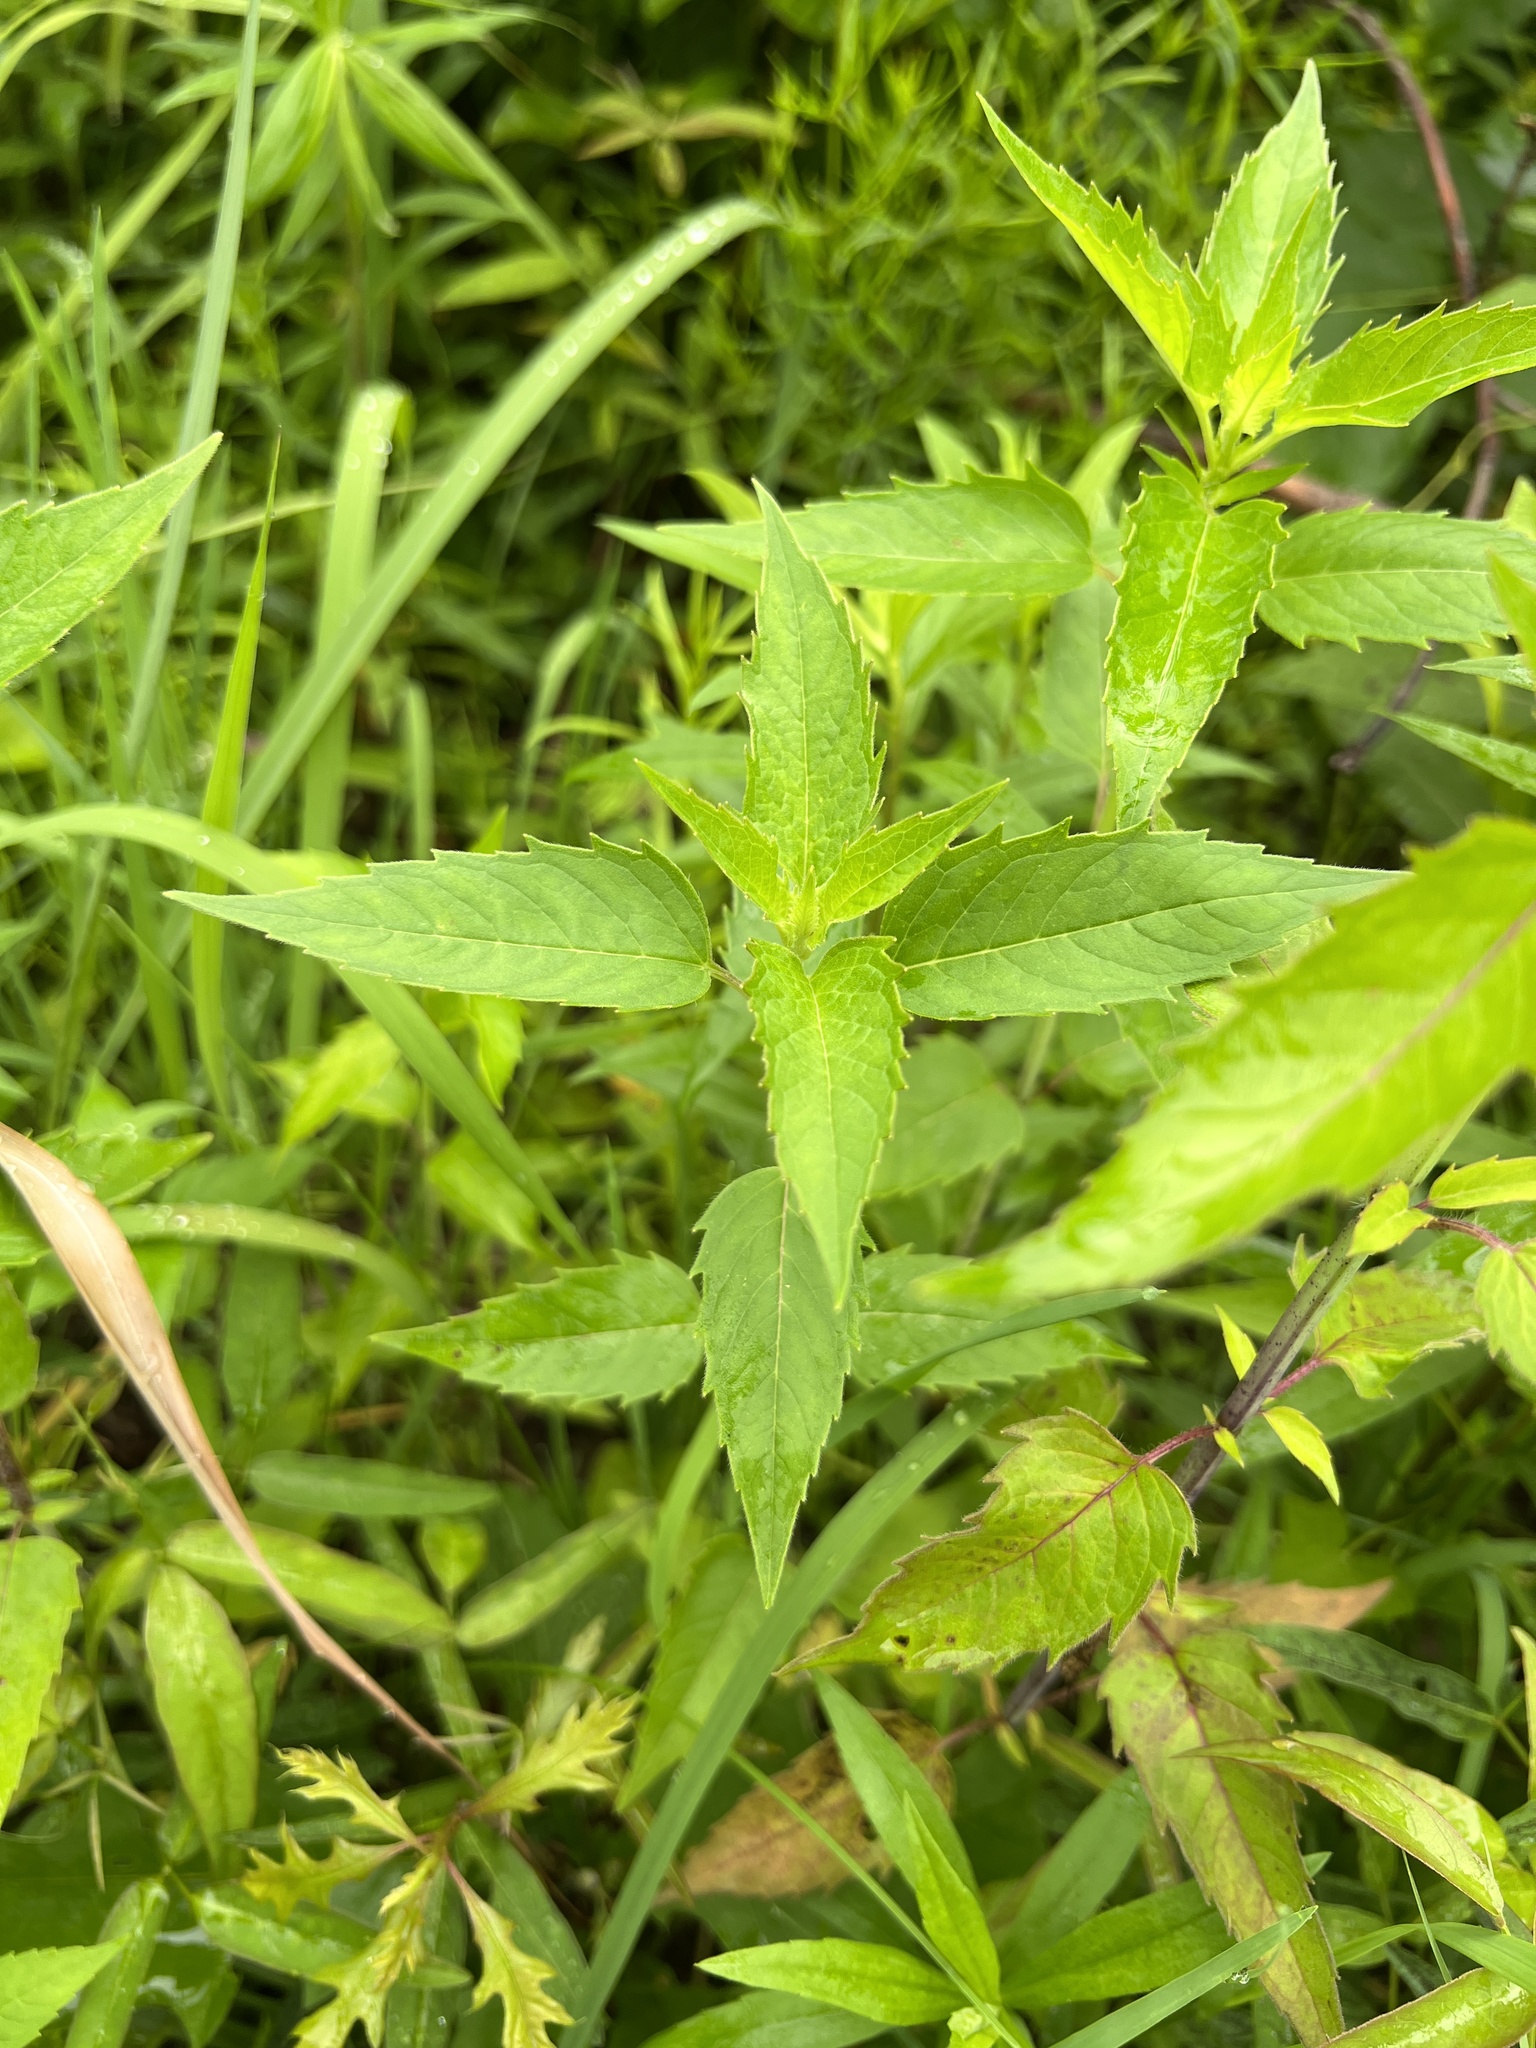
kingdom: Plantae
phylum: Tracheophyta
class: Magnoliopsida
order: Lamiales
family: Lamiaceae
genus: Monarda
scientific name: Monarda fistulosa
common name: Purple beebalm
